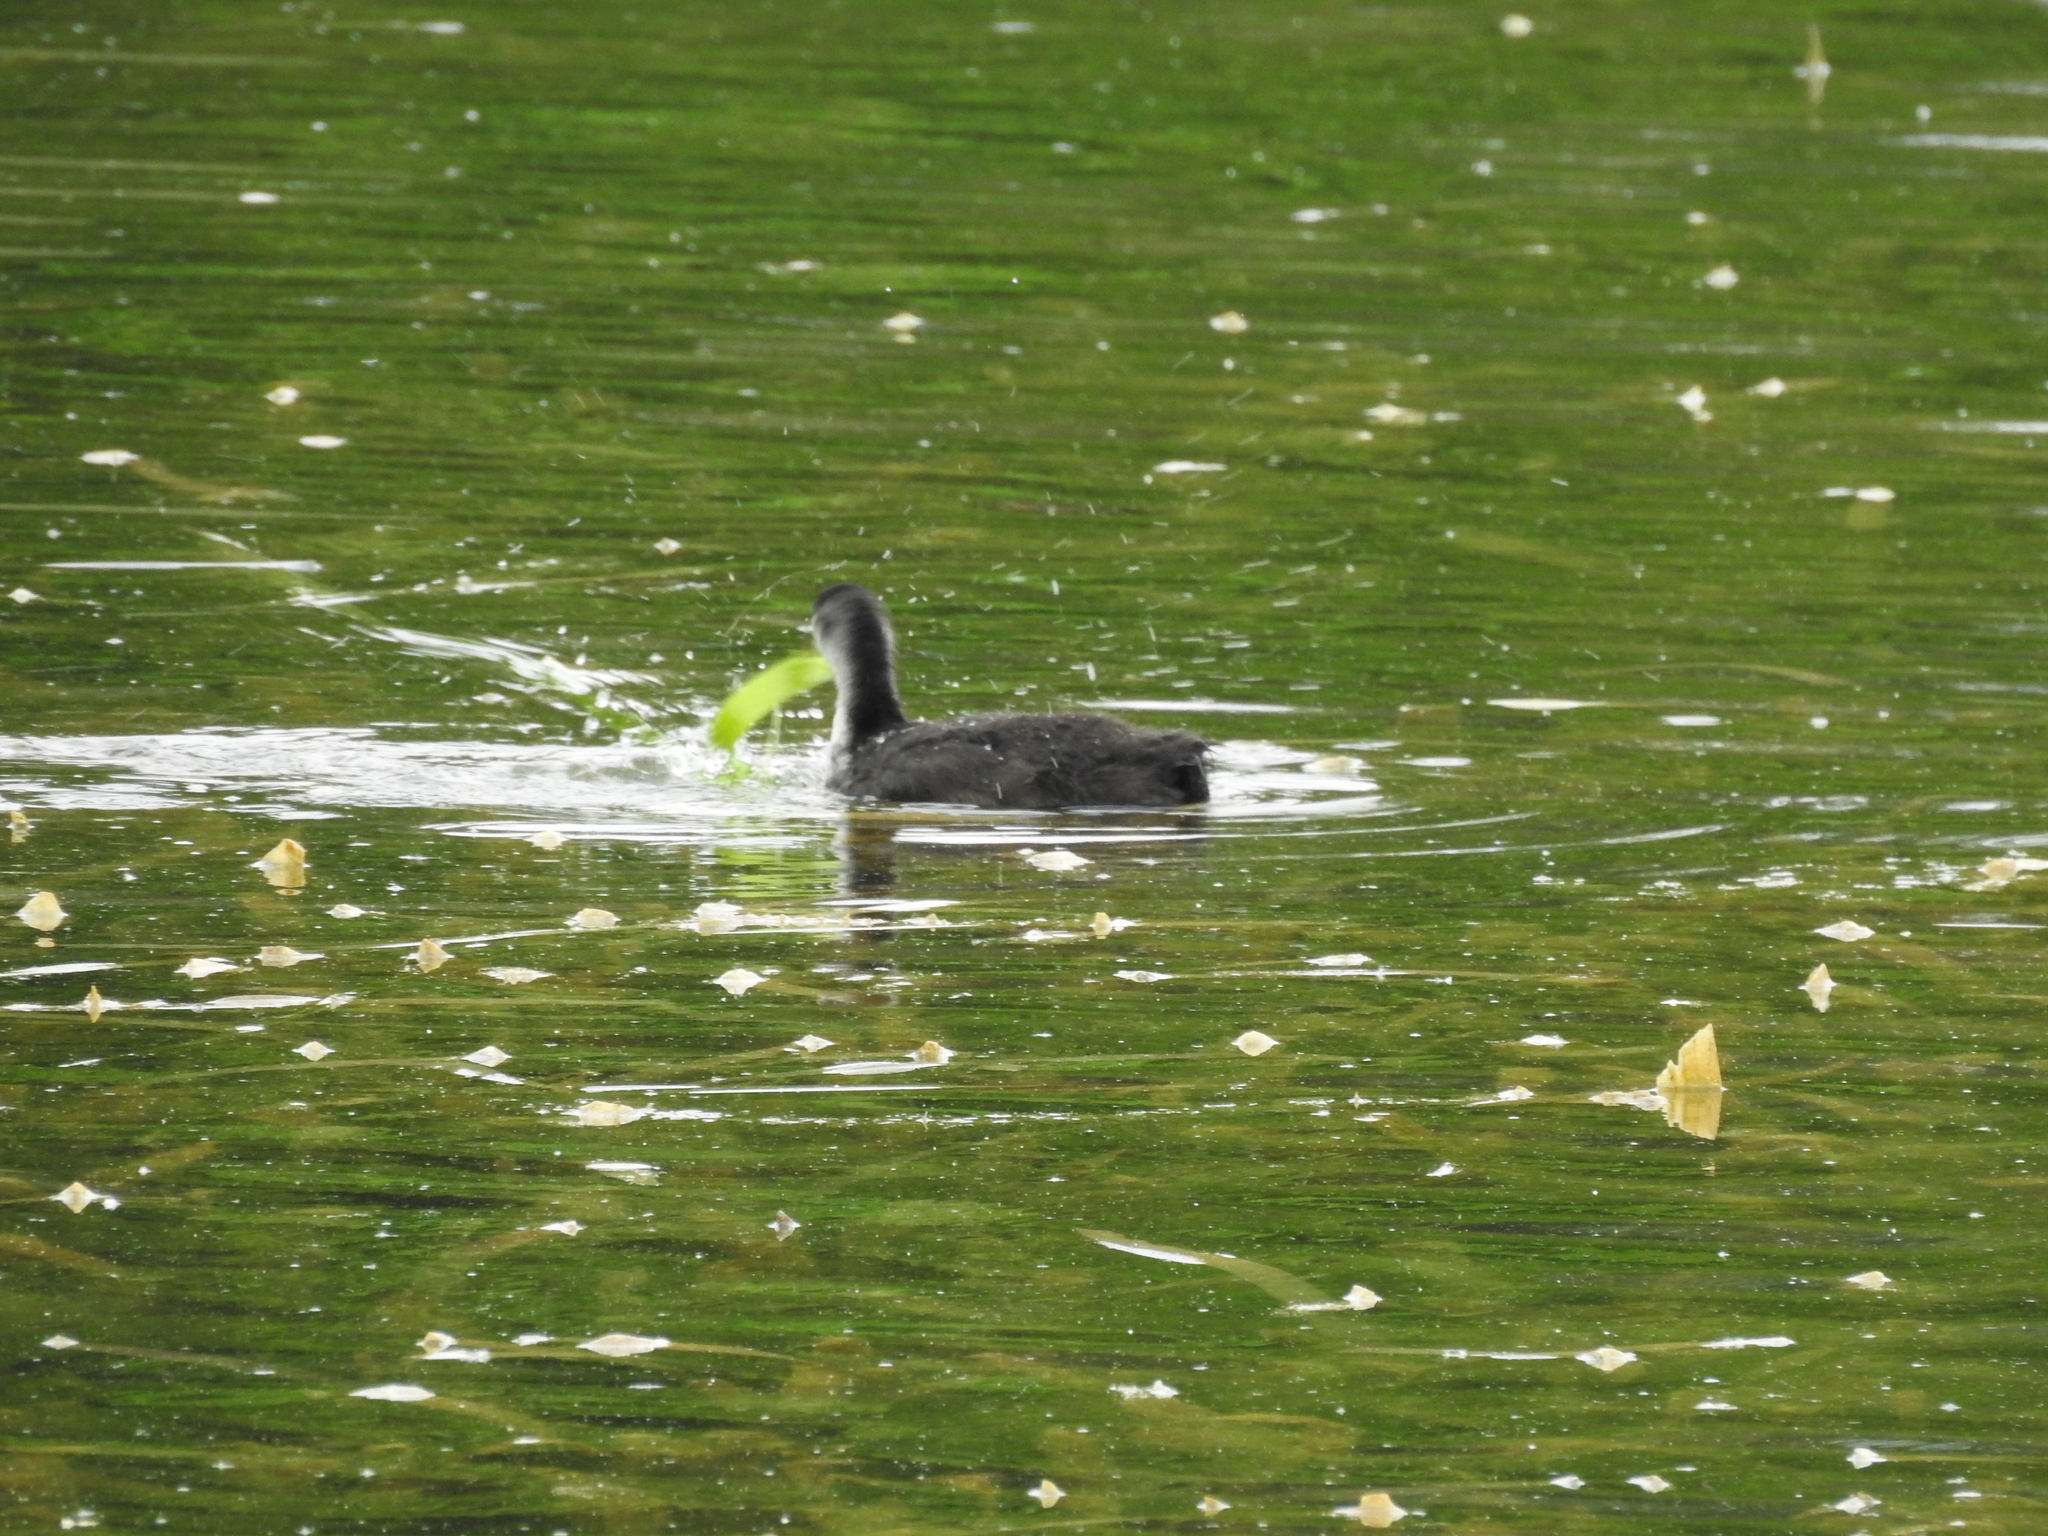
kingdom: Animalia
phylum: Chordata
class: Aves
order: Gruiformes
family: Rallidae
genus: Fulica
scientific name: Fulica atra
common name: Eurasian coot
